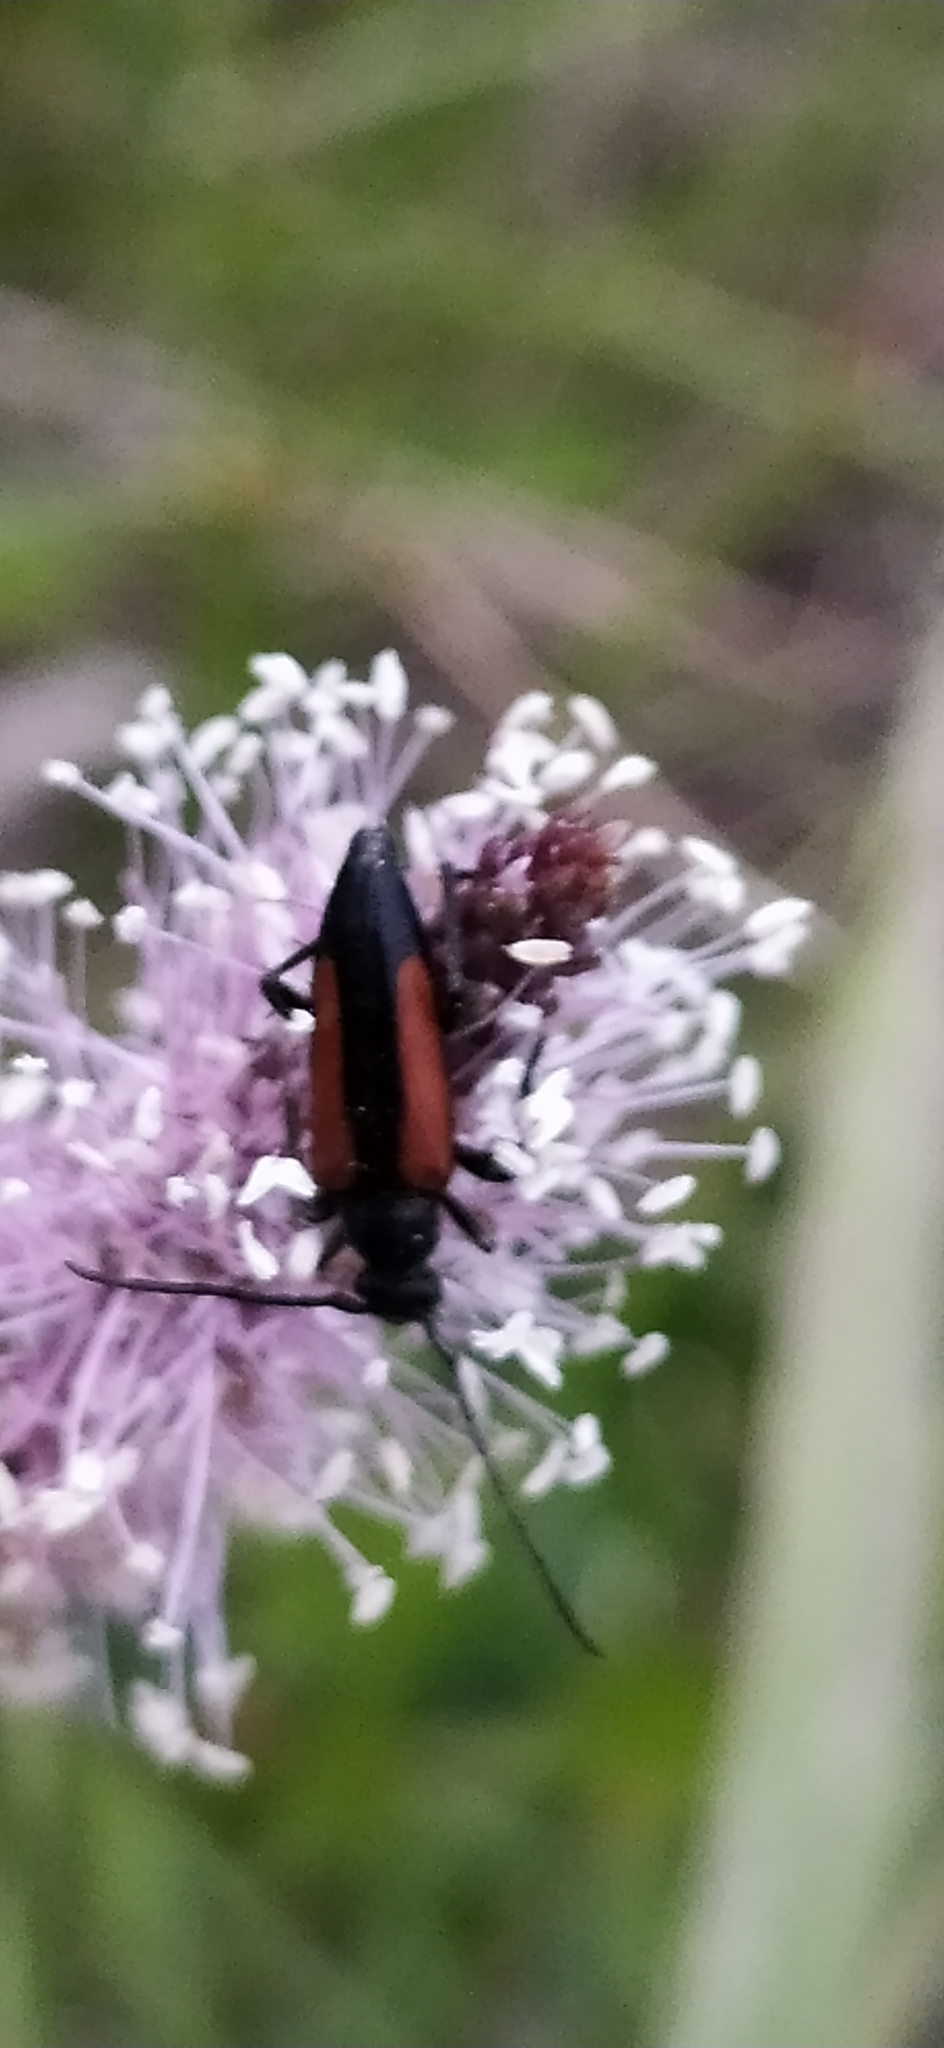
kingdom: Animalia
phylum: Arthropoda
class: Insecta
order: Coleoptera
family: Cerambycidae
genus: Stenurella
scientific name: Stenurella melanura
